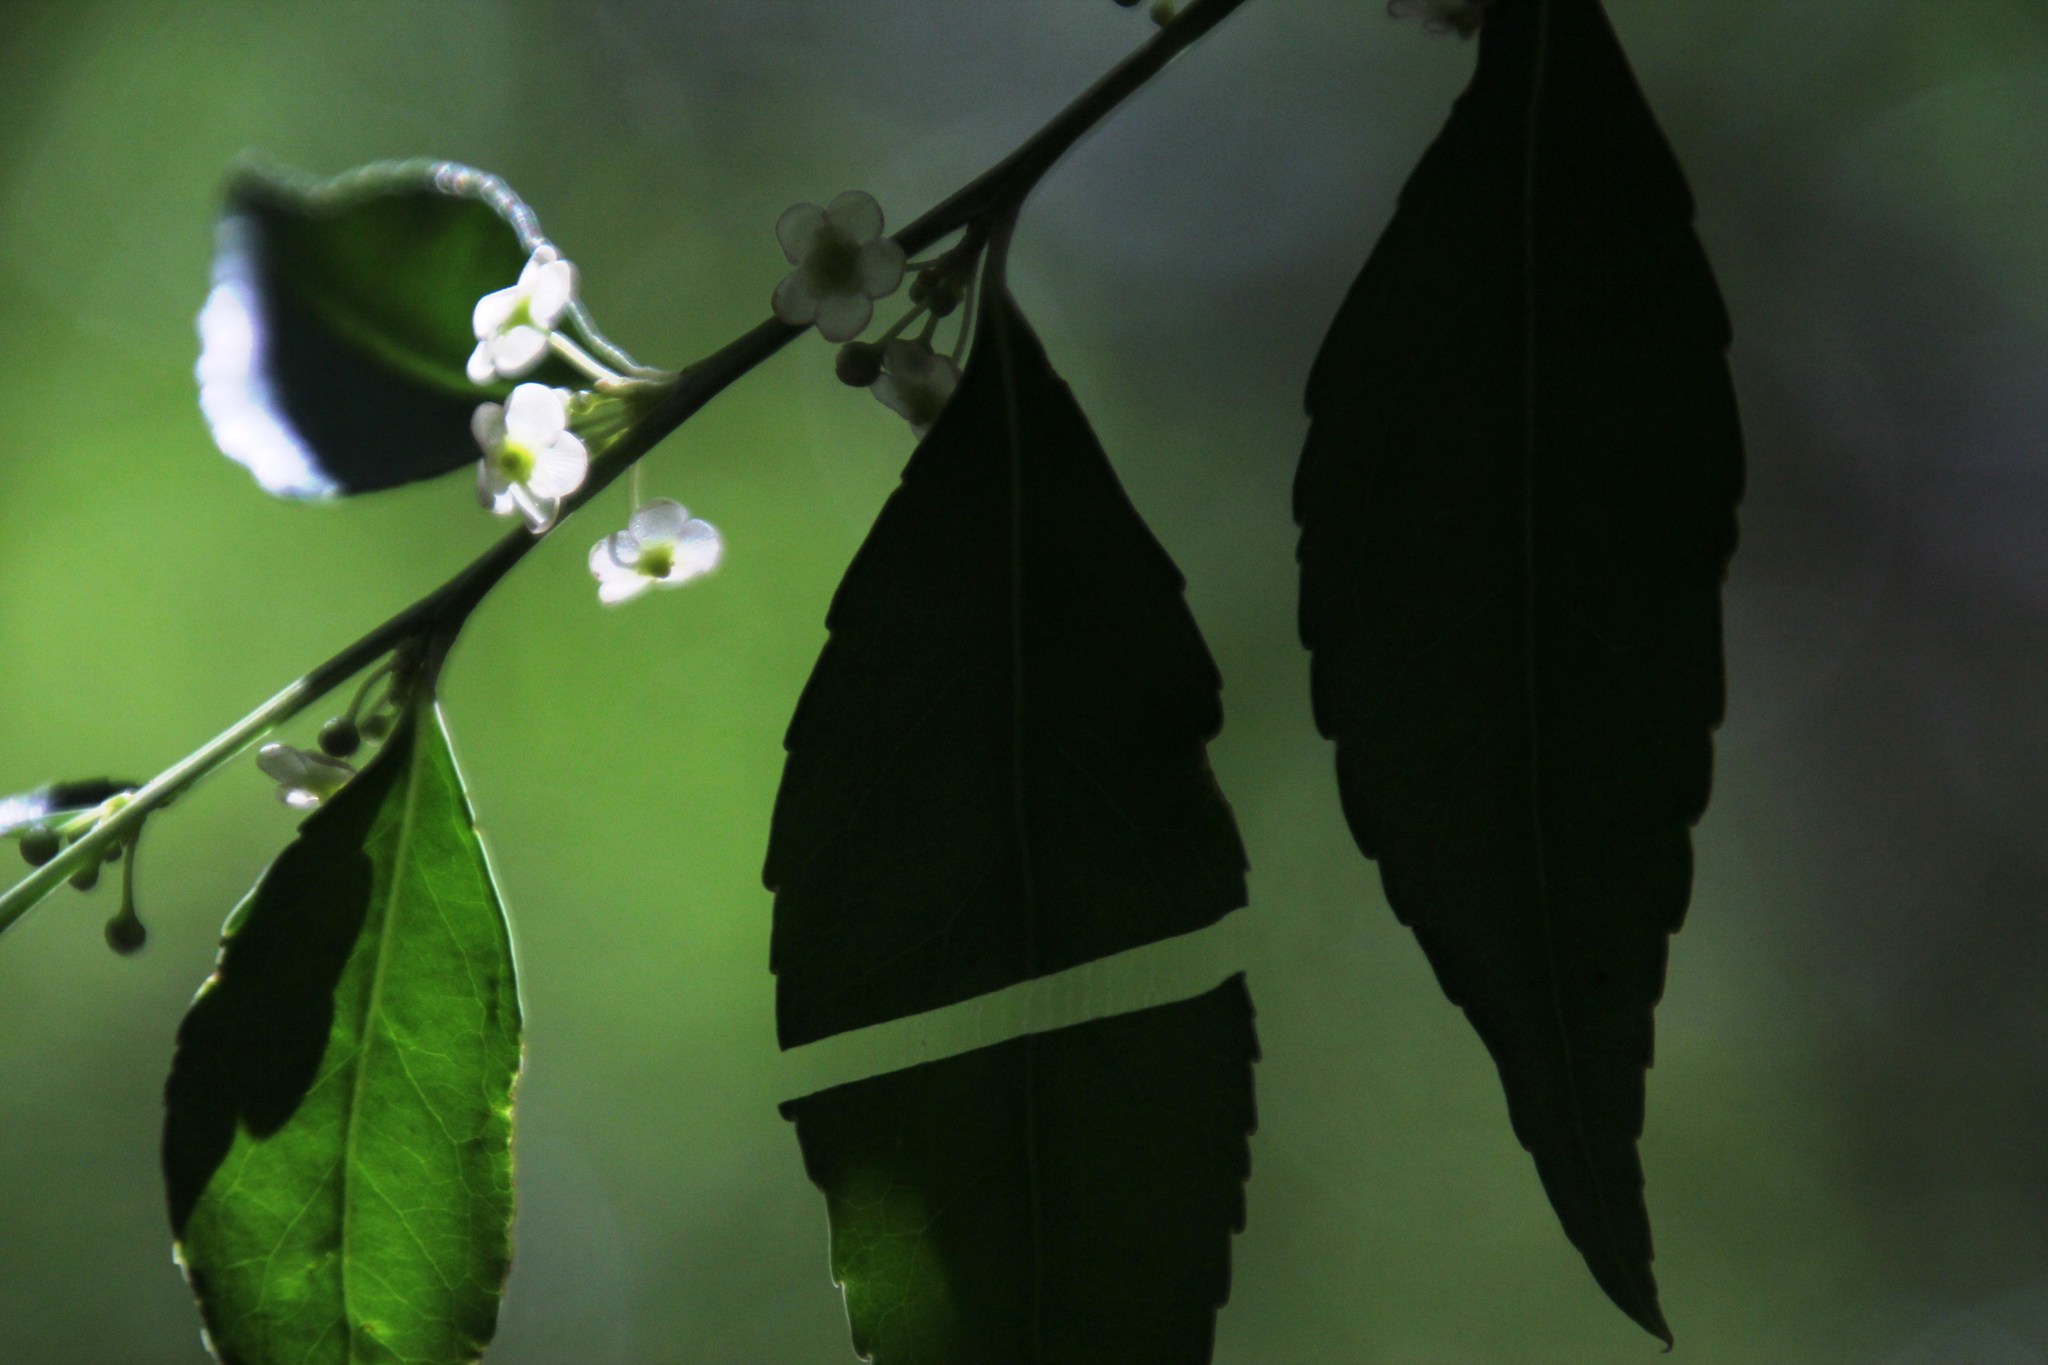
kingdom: Plantae
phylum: Tracheophyta
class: Magnoliopsida
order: Celastrales
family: Celastraceae
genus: Gymnosporia
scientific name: Gymnosporia acuminata
